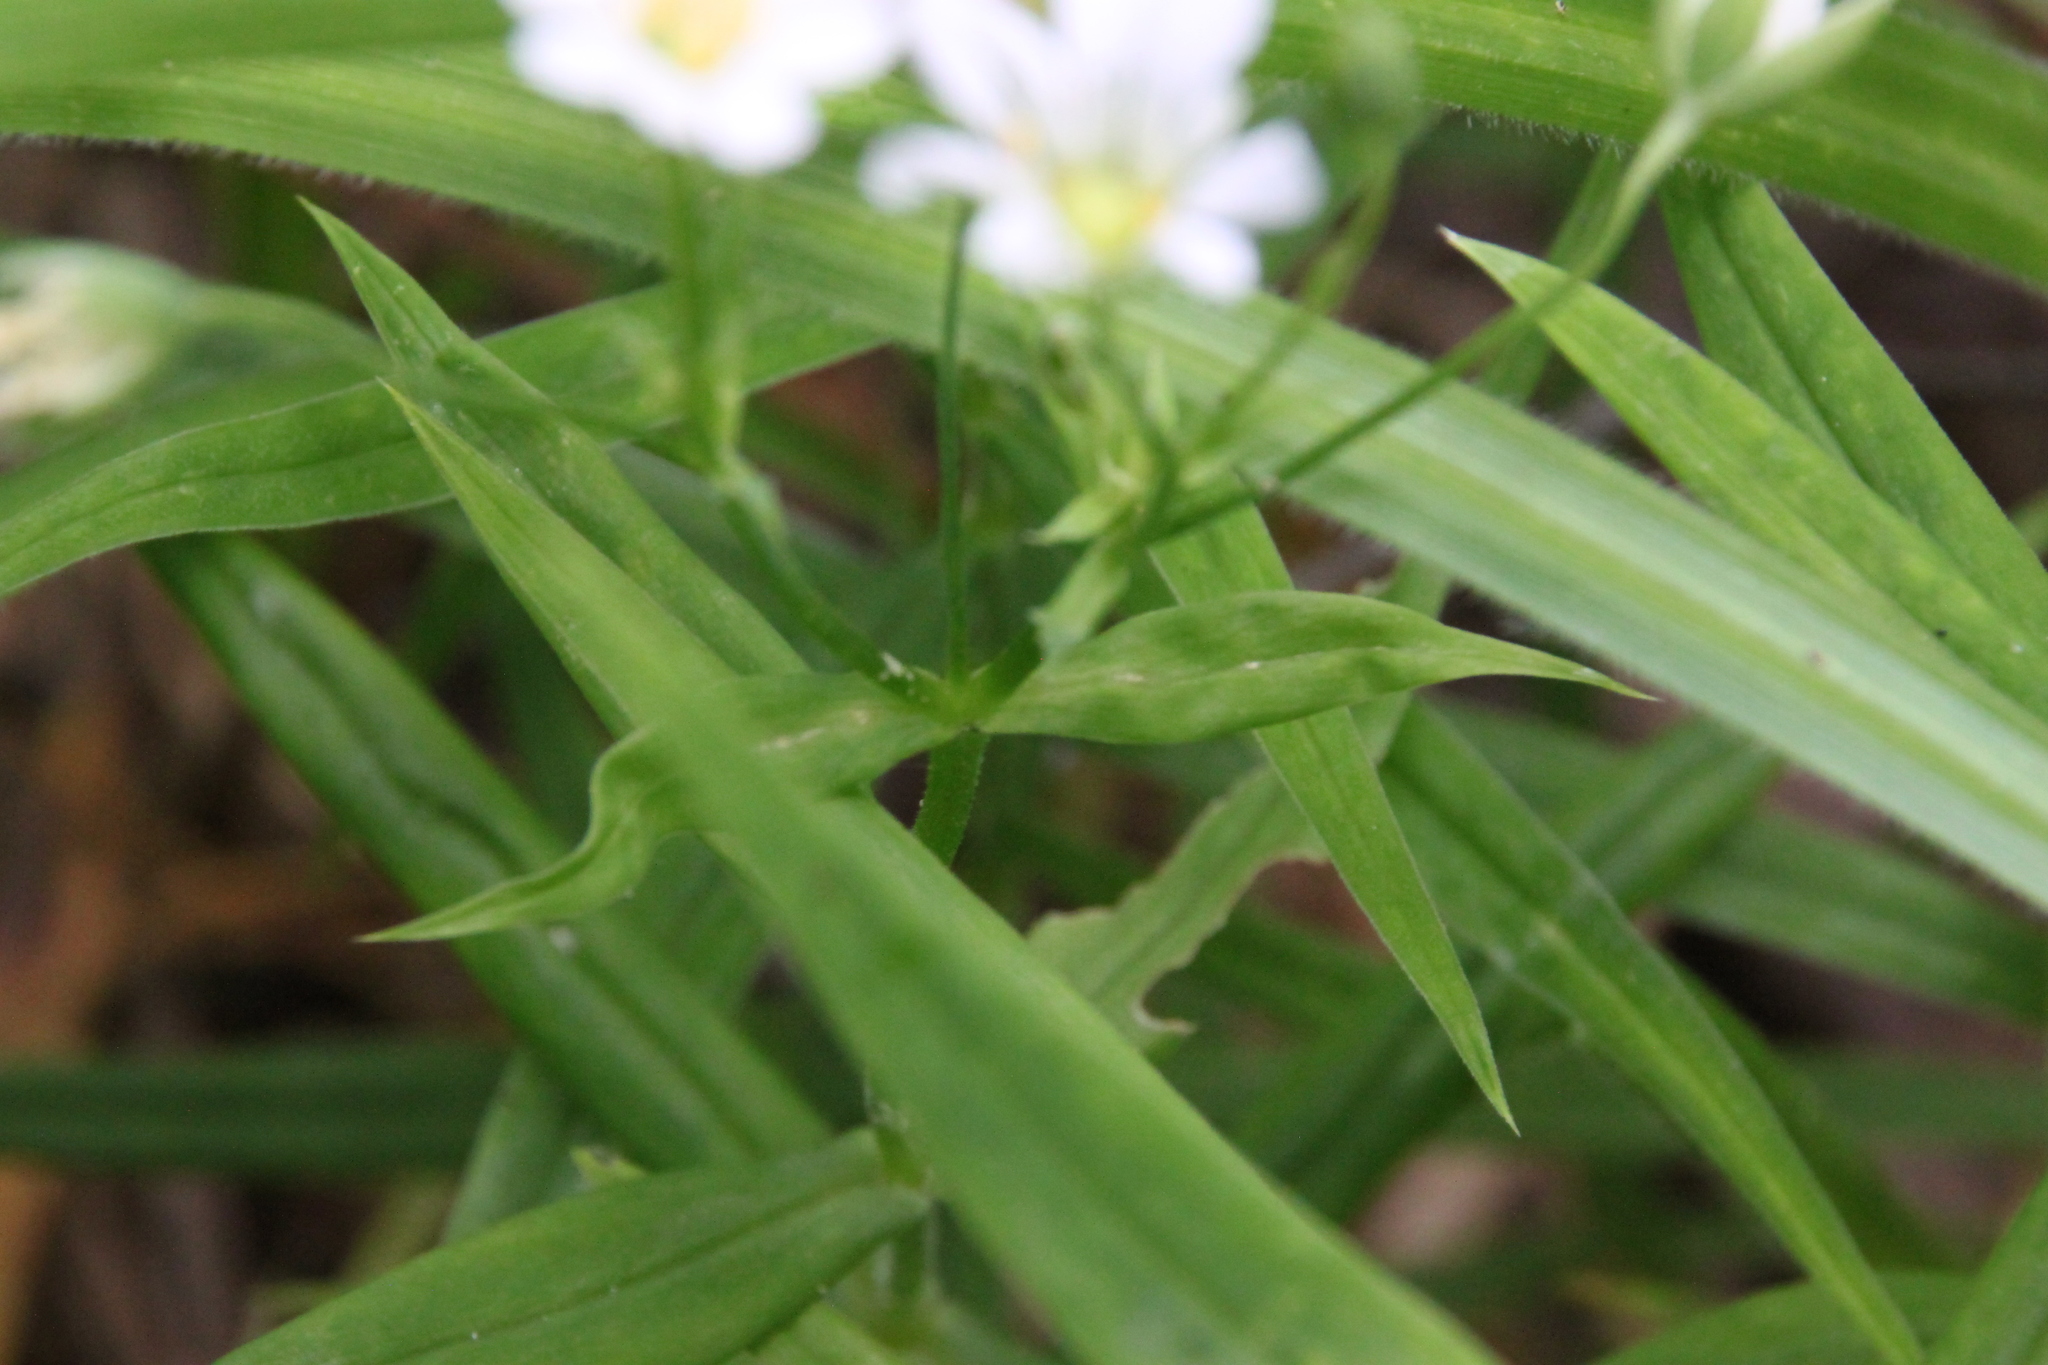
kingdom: Plantae
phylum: Tracheophyta
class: Magnoliopsida
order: Caryophyllales
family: Caryophyllaceae
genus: Rabelera
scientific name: Rabelera holostea
